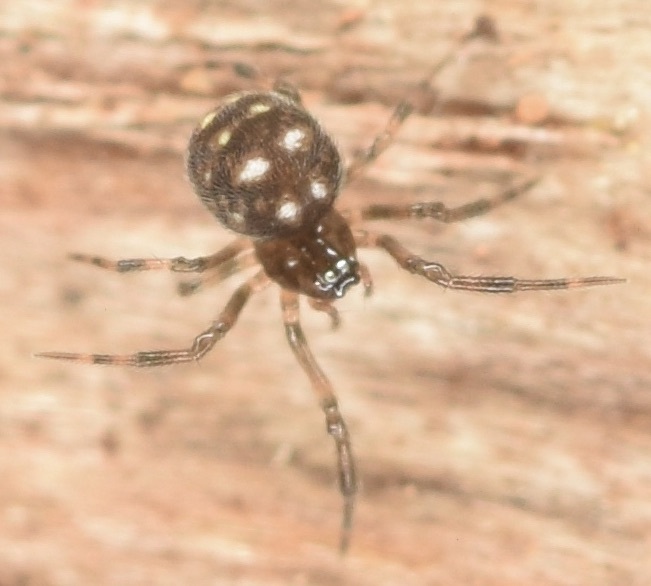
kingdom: Animalia
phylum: Arthropoda
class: Arachnida
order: Araneae
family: Mysmenidae
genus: Microdipoena
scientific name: Microdipoena guttata
